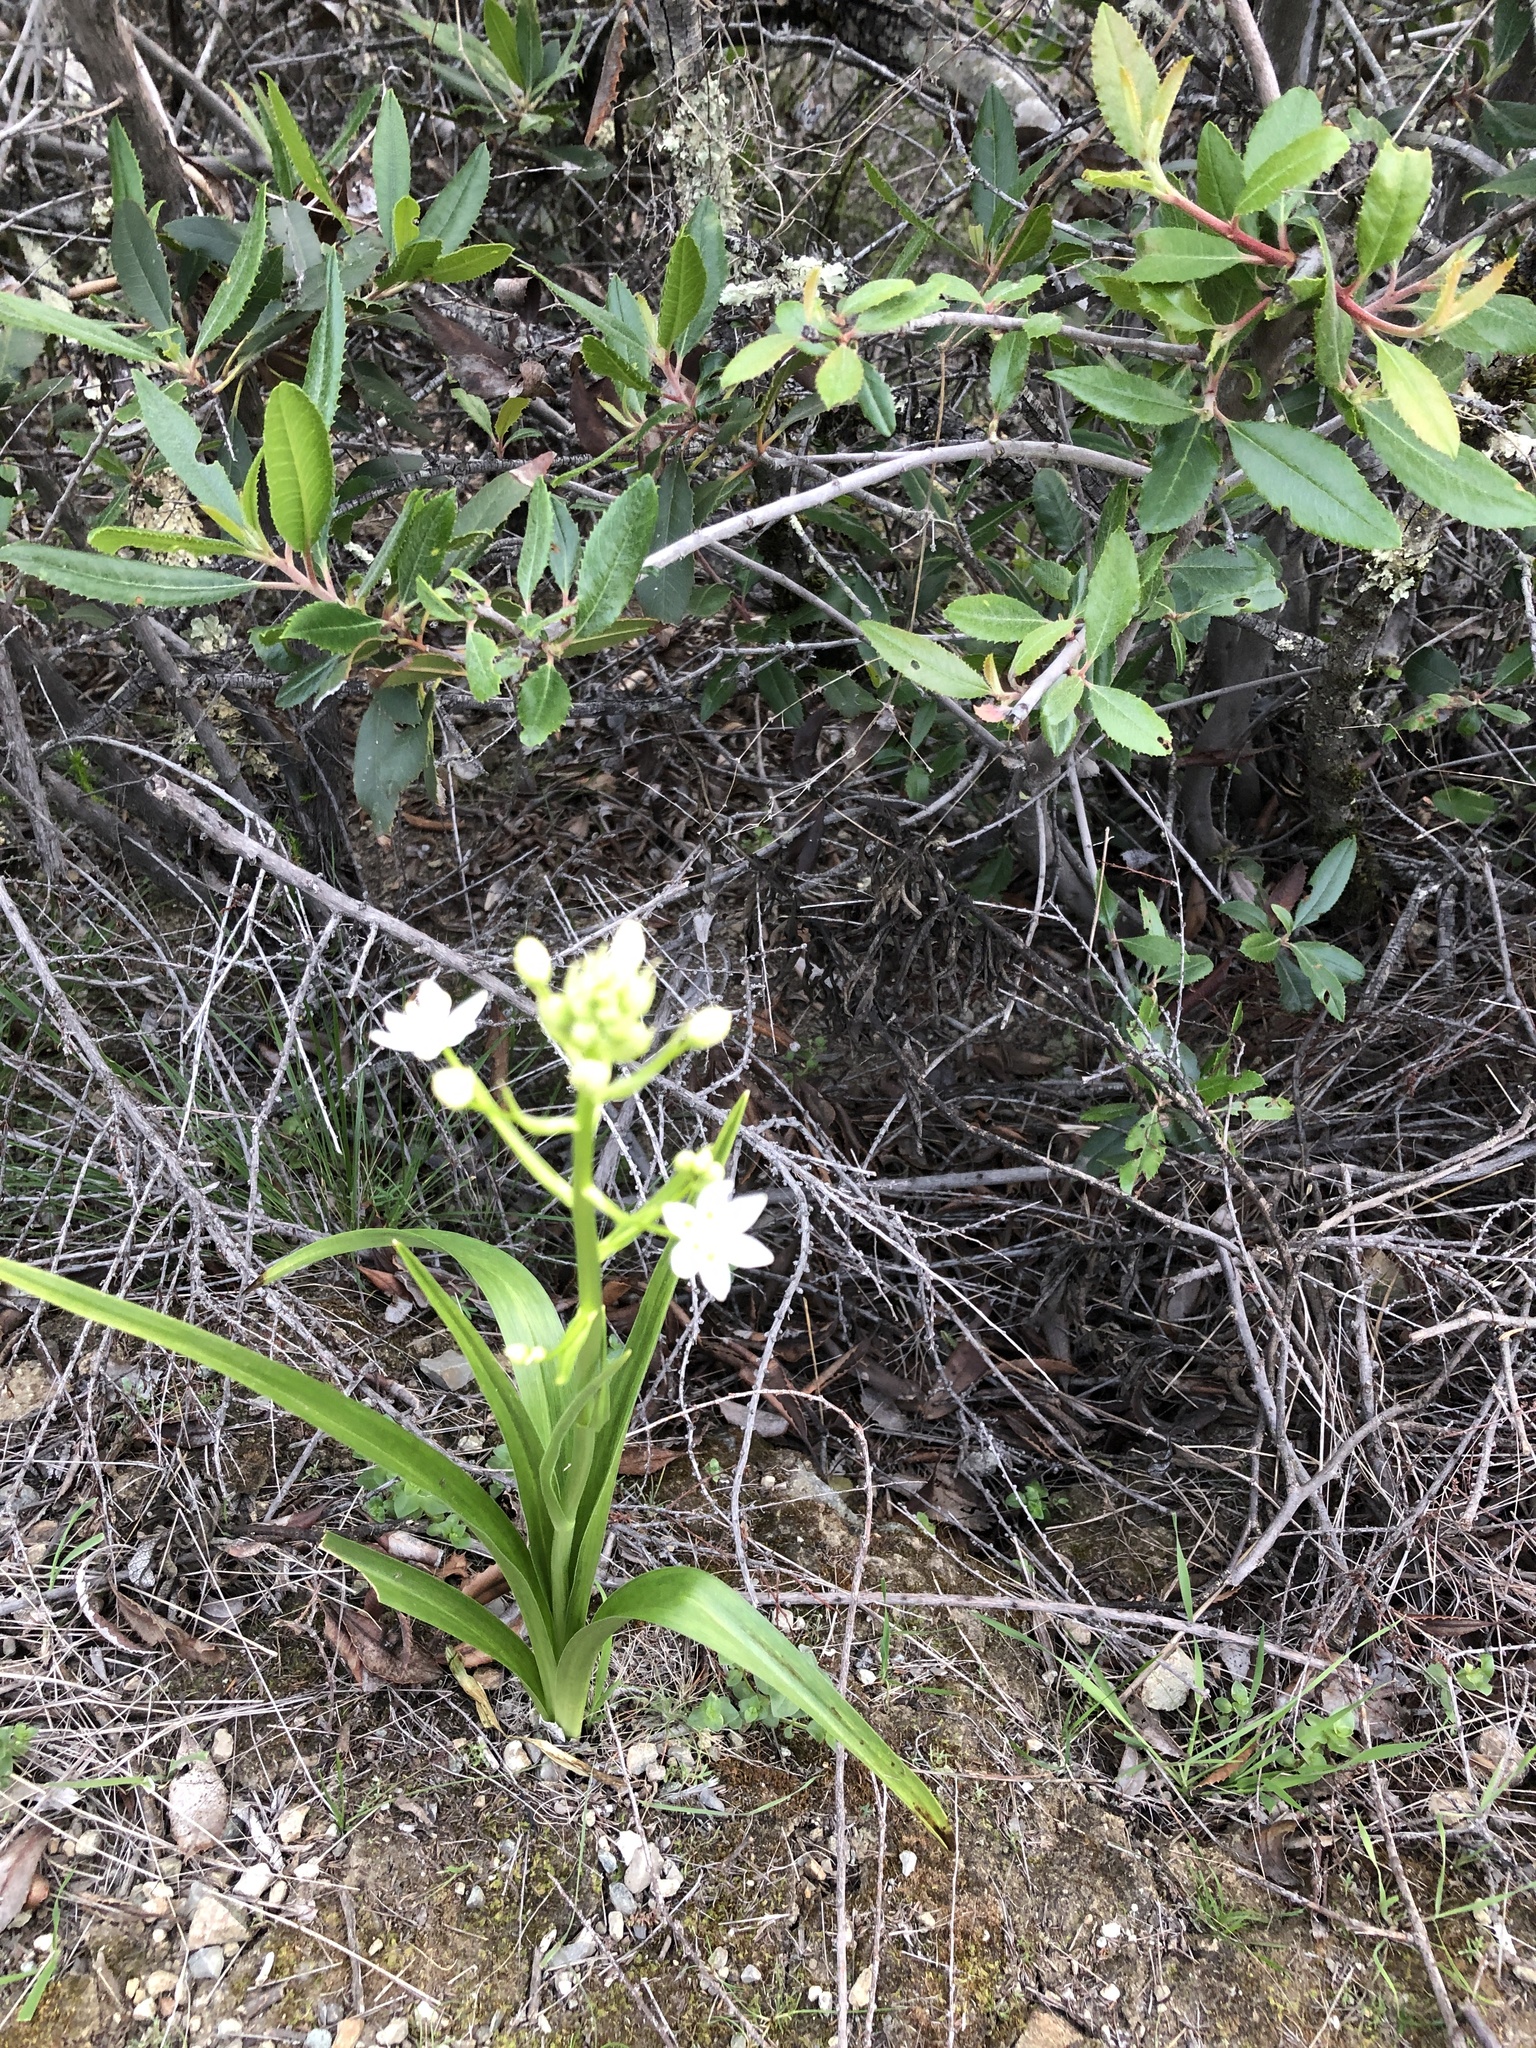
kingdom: Plantae
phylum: Tracheophyta
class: Liliopsida
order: Liliales
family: Melanthiaceae
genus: Toxicoscordion
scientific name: Toxicoscordion fremontii
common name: Fremont's death camas
